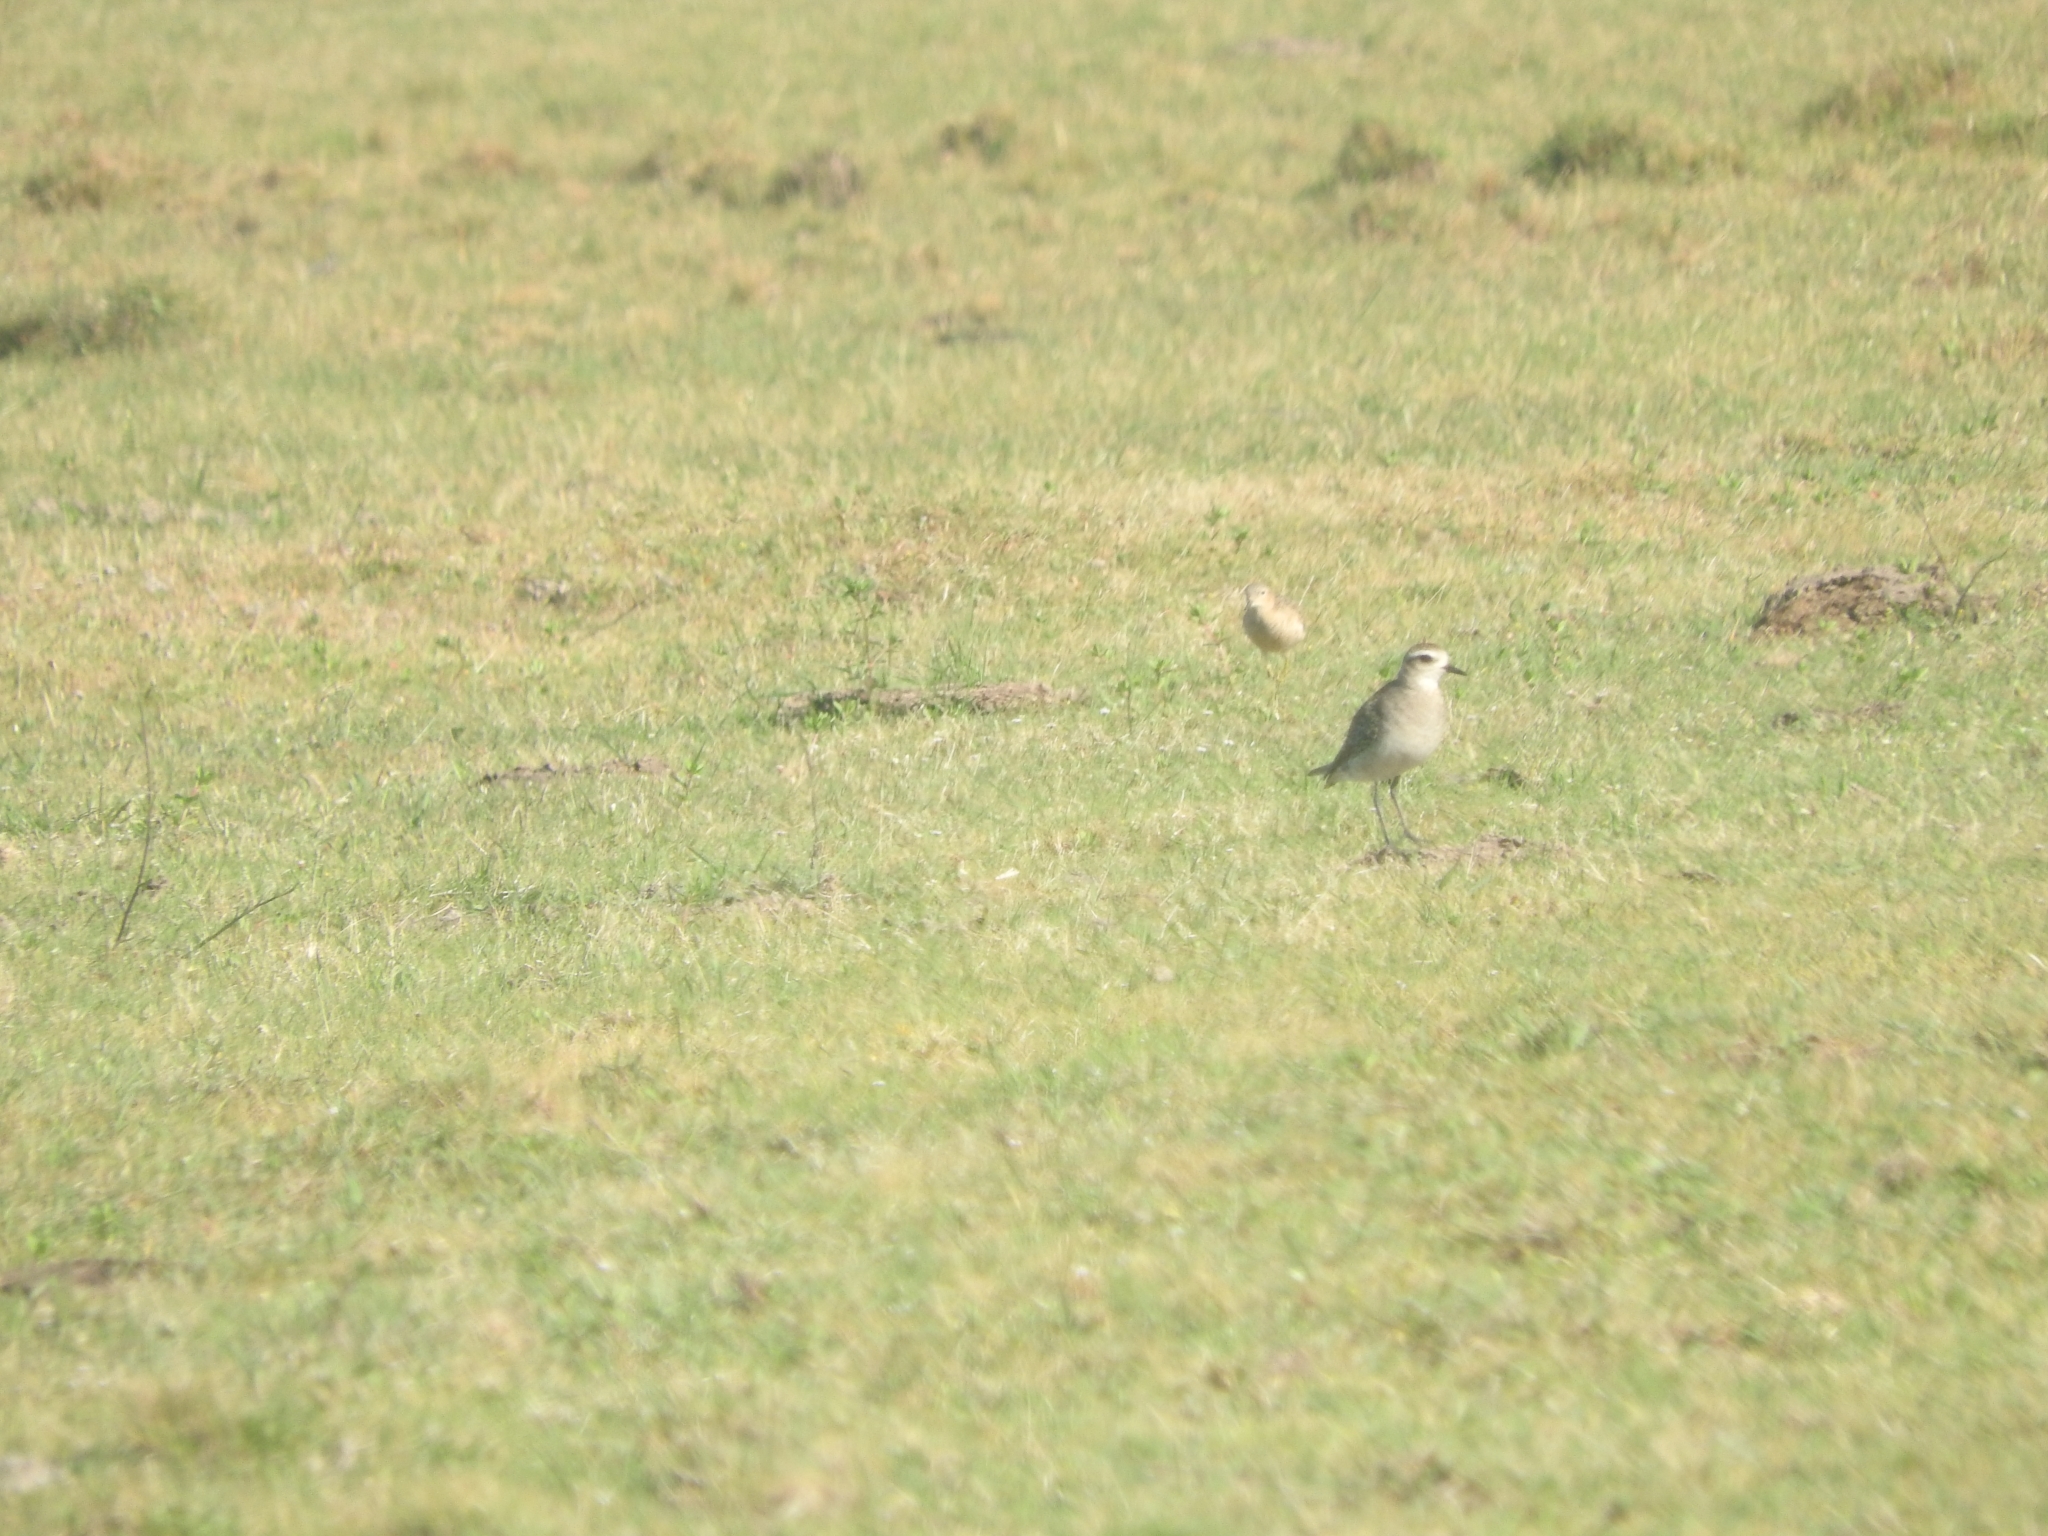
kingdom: Animalia
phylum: Chordata
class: Aves
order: Charadriiformes
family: Charadriidae
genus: Pluvialis
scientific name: Pluvialis dominica
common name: American golden plover
